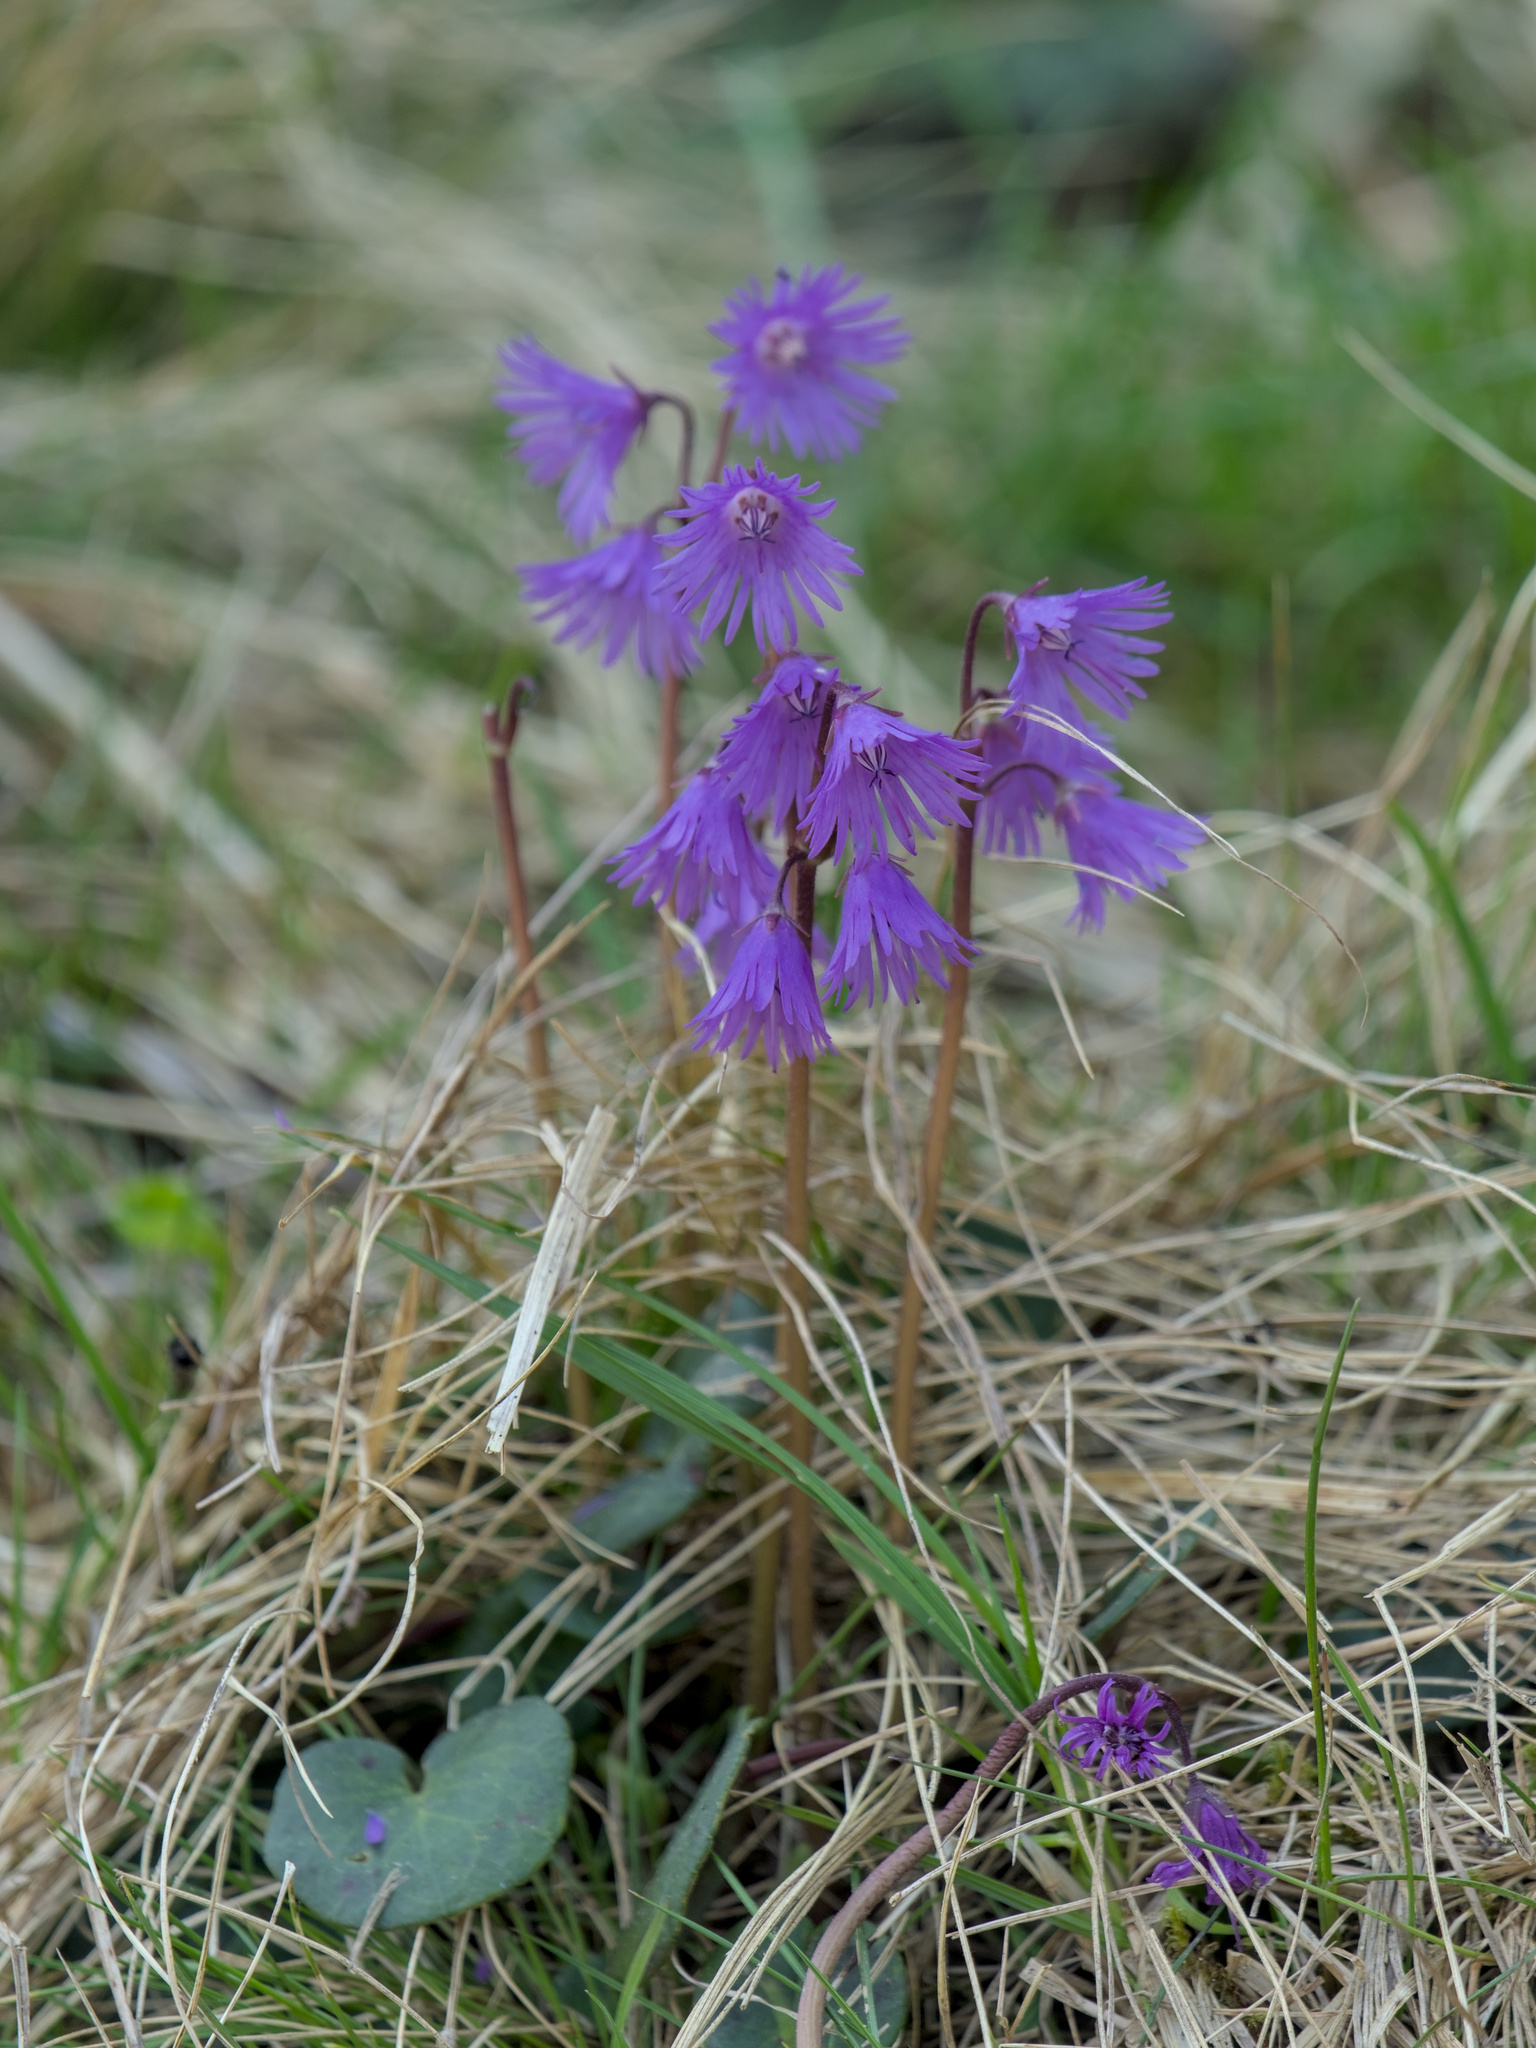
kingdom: Plantae
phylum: Tracheophyta
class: Magnoliopsida
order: Ericales
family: Primulaceae
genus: Soldanella
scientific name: Soldanella carpatica
